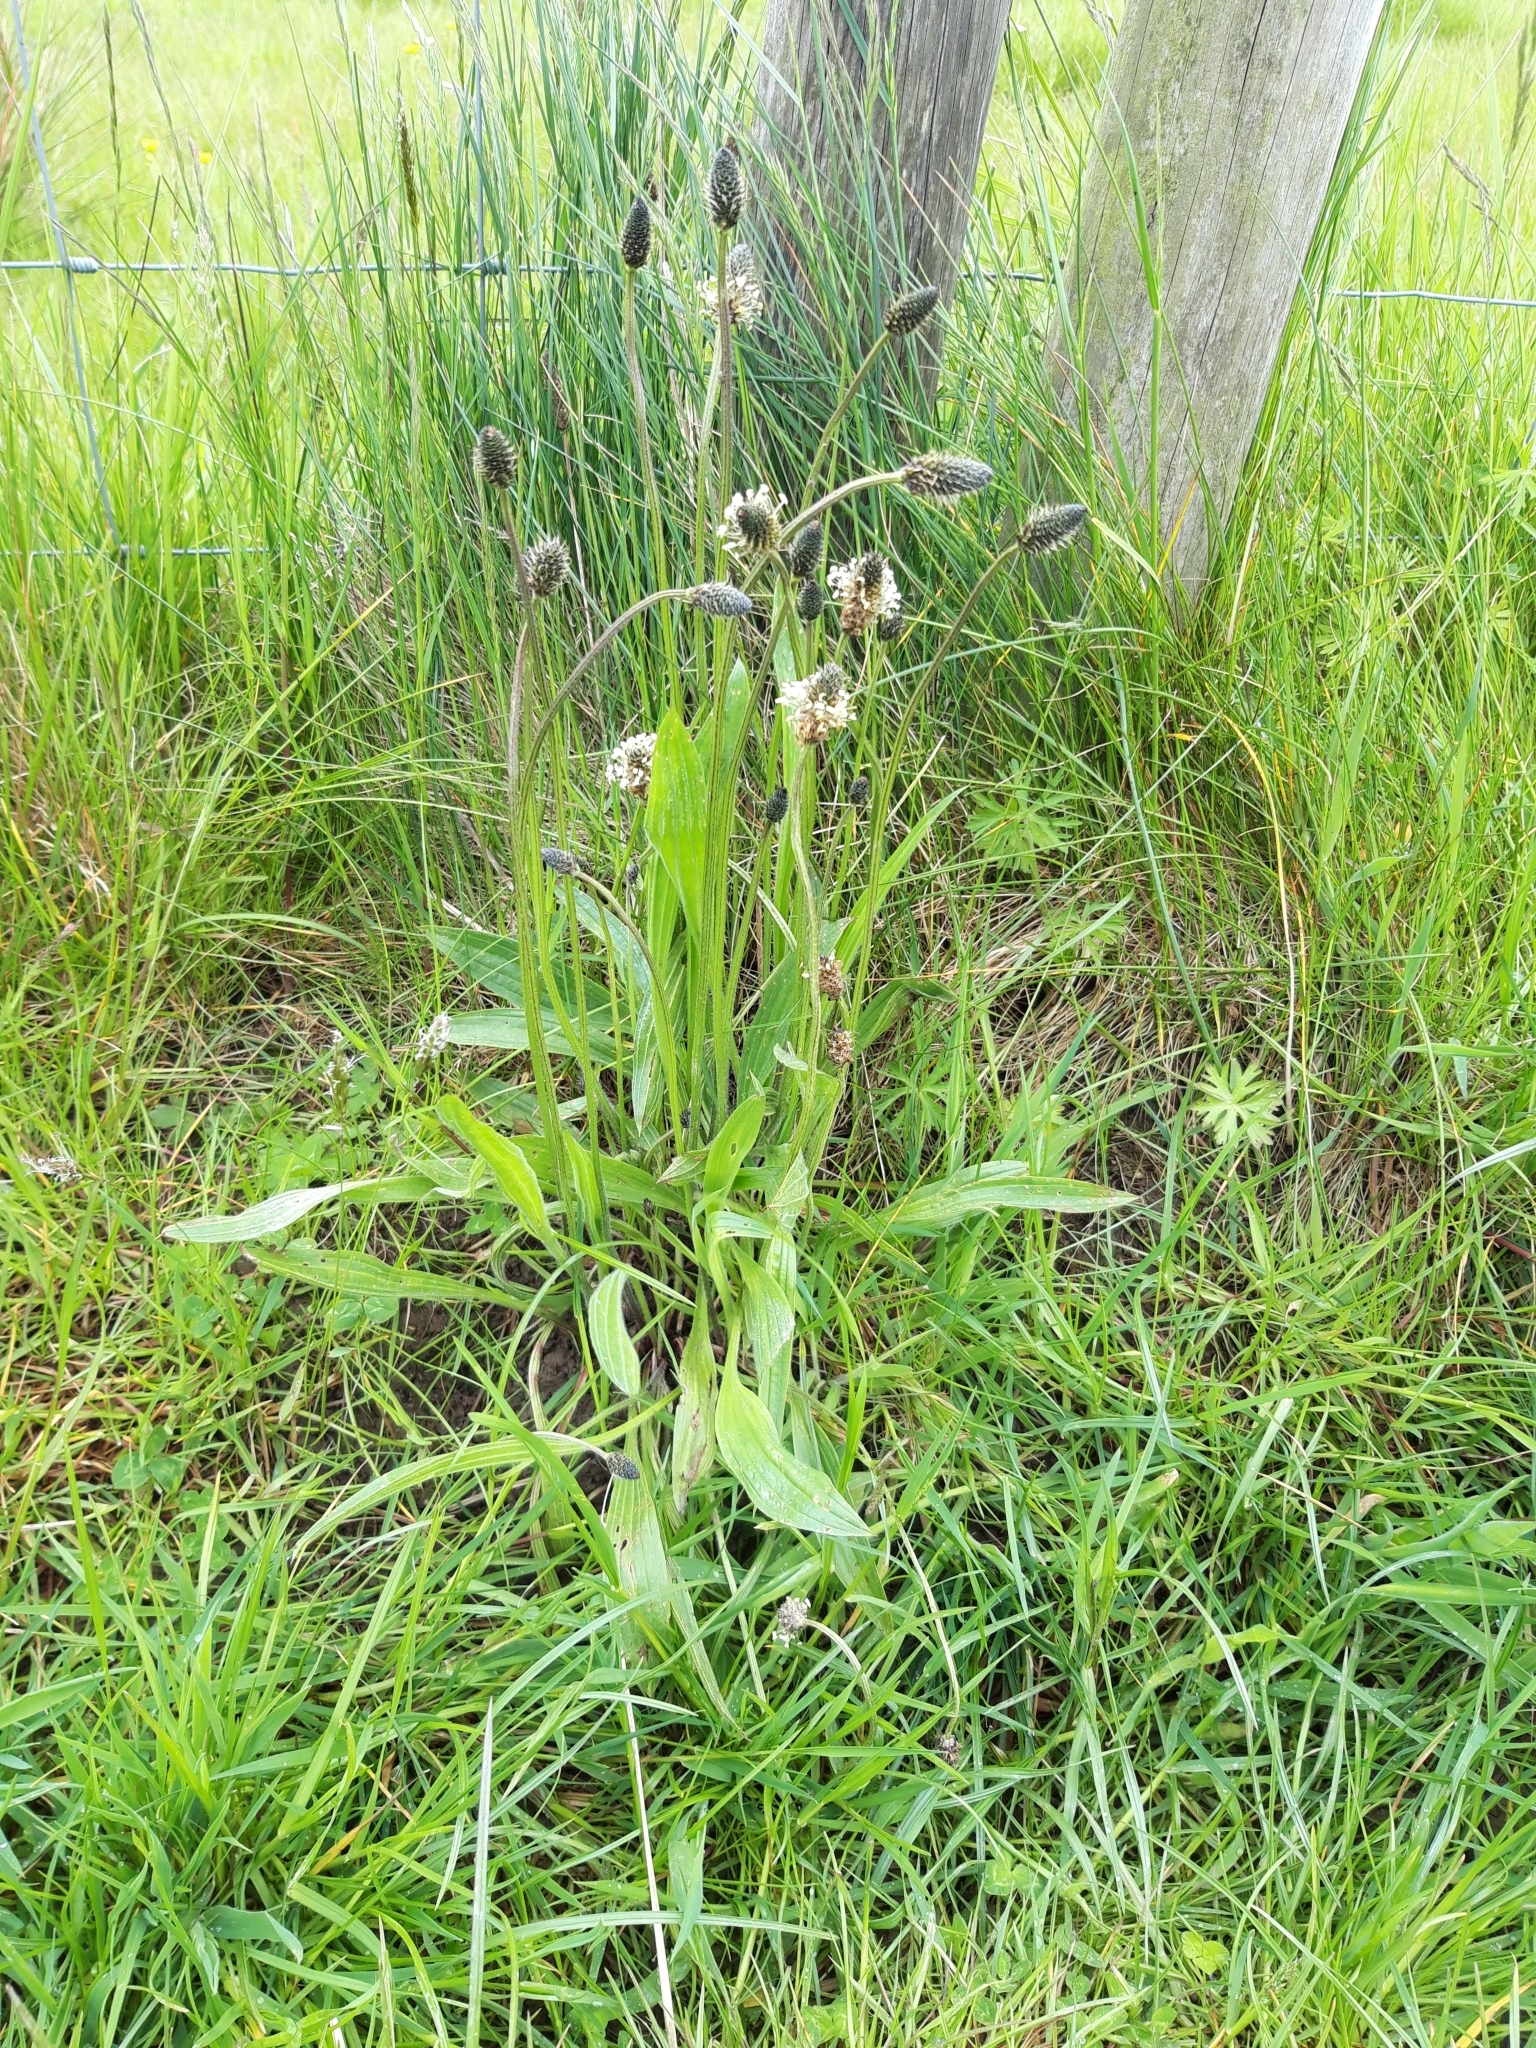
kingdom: Plantae
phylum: Tracheophyta
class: Magnoliopsida
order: Lamiales
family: Plantaginaceae
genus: Plantago
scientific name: Plantago lanceolata
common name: Ribwort plantain
